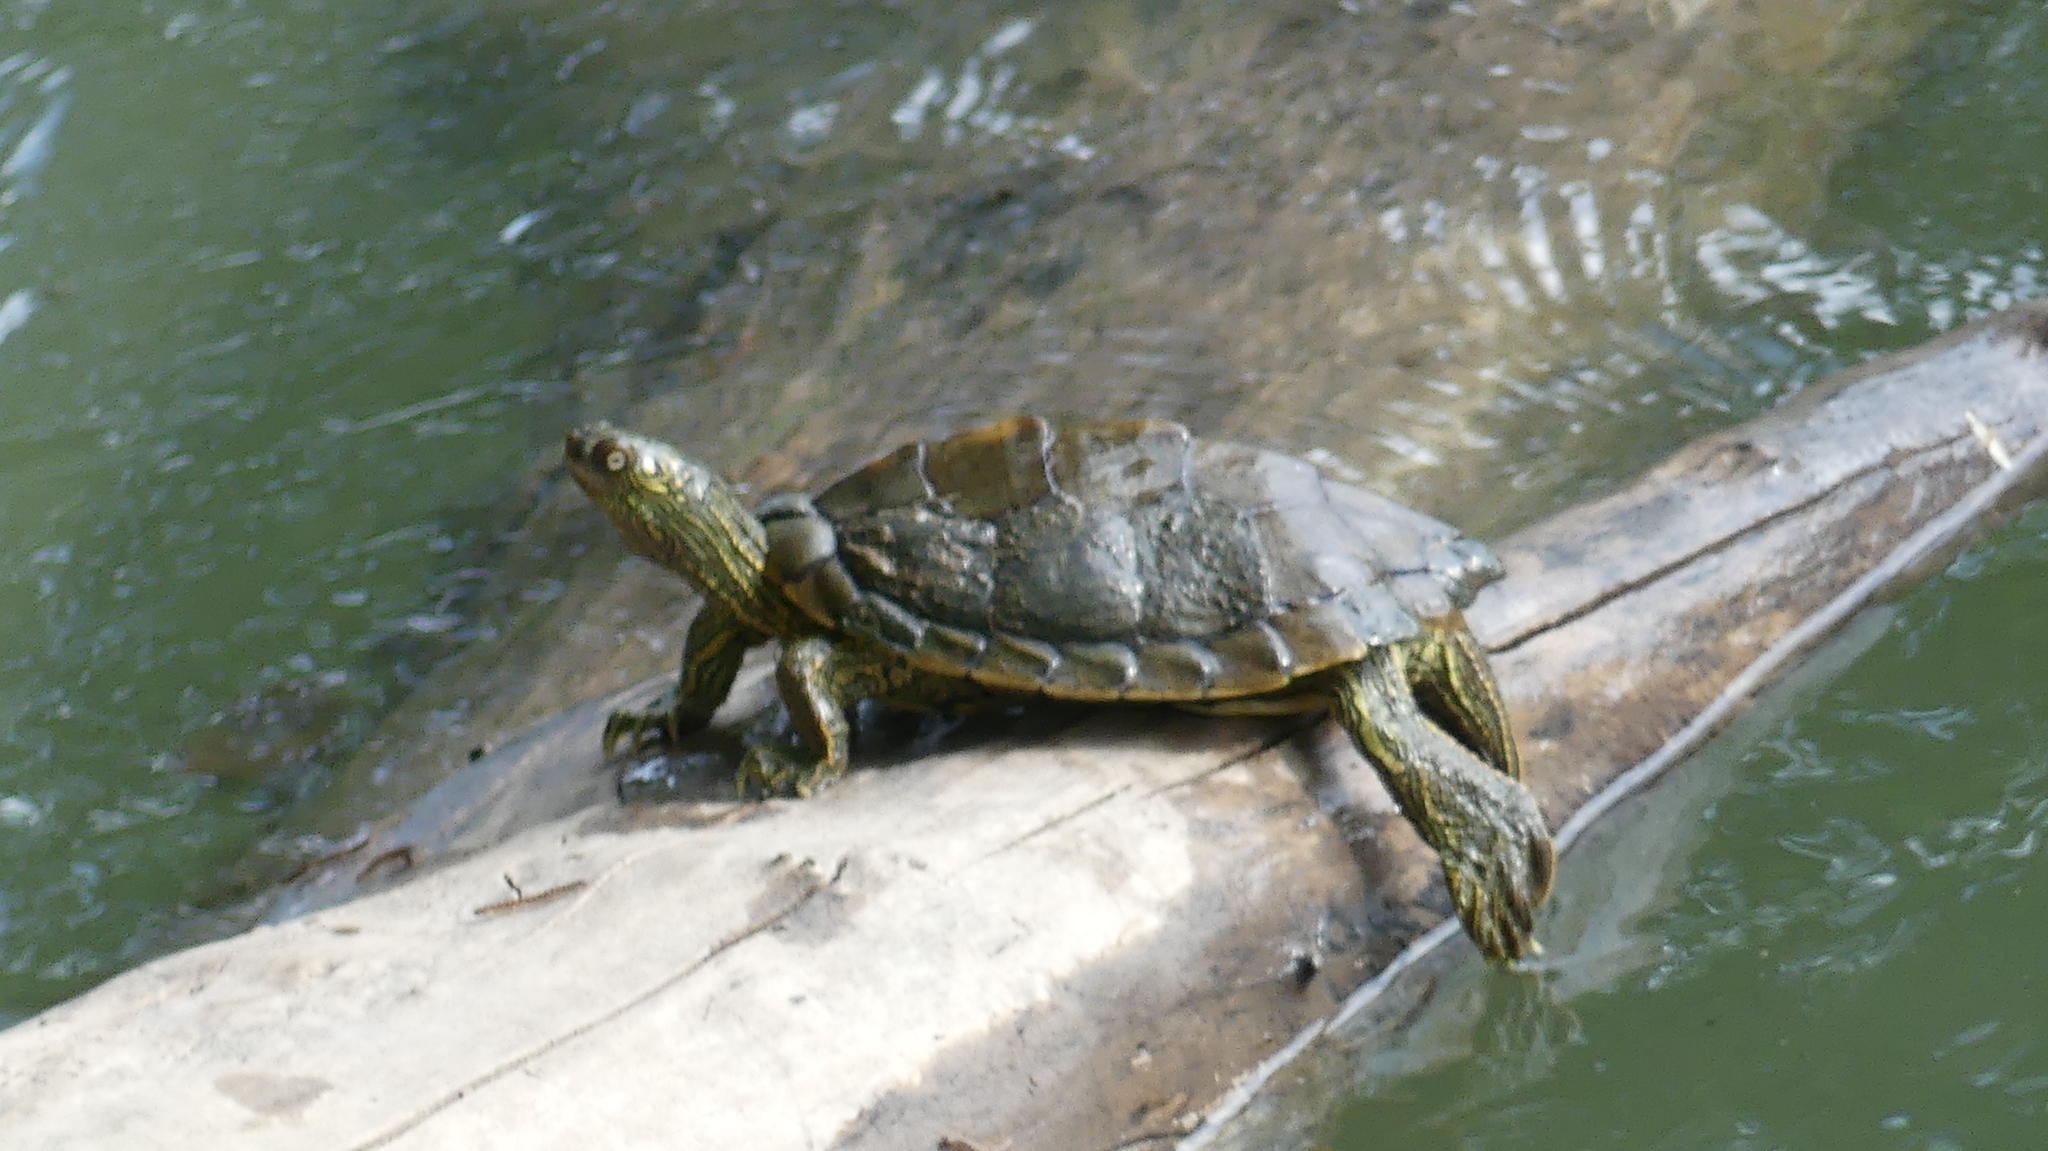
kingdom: Animalia
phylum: Chordata
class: Testudines
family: Emydidae
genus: Graptemys
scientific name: Graptemys versa
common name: Texas map turtle
